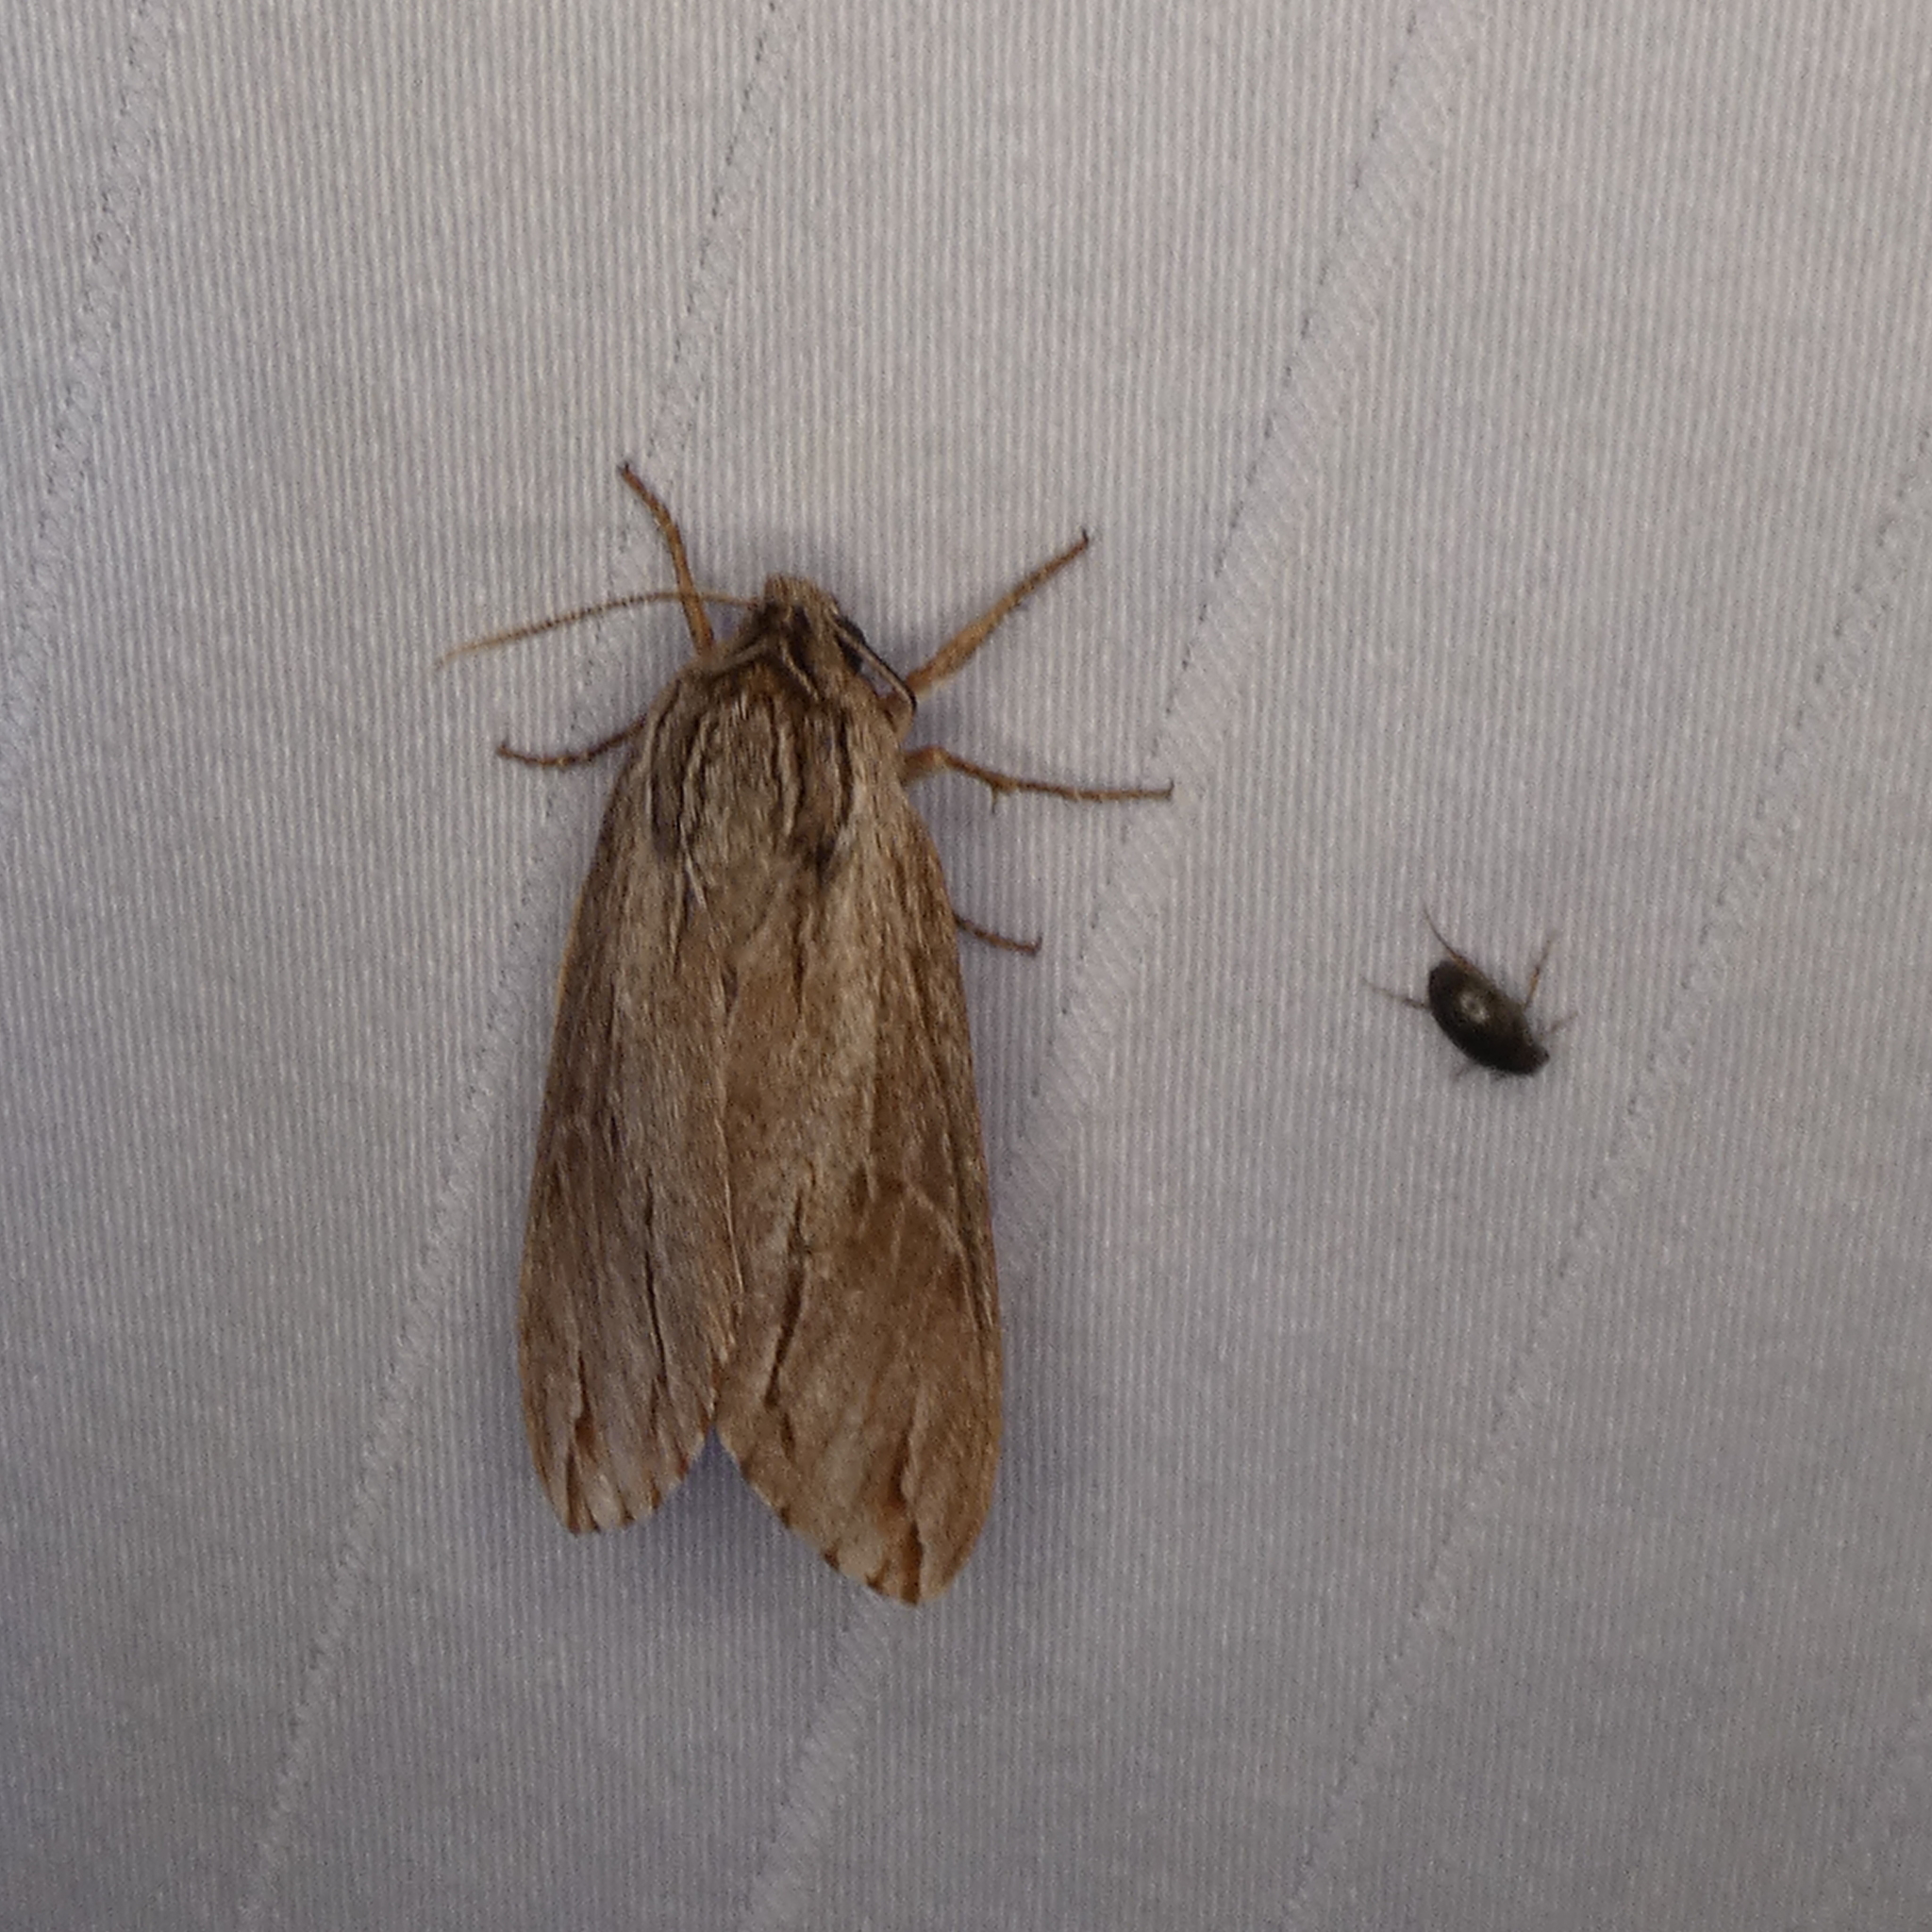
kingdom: Animalia
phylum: Arthropoda
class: Insecta
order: Lepidoptera
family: Sphingidae
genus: Isoparce
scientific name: Isoparce cupressi
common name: Cypress sphinx
